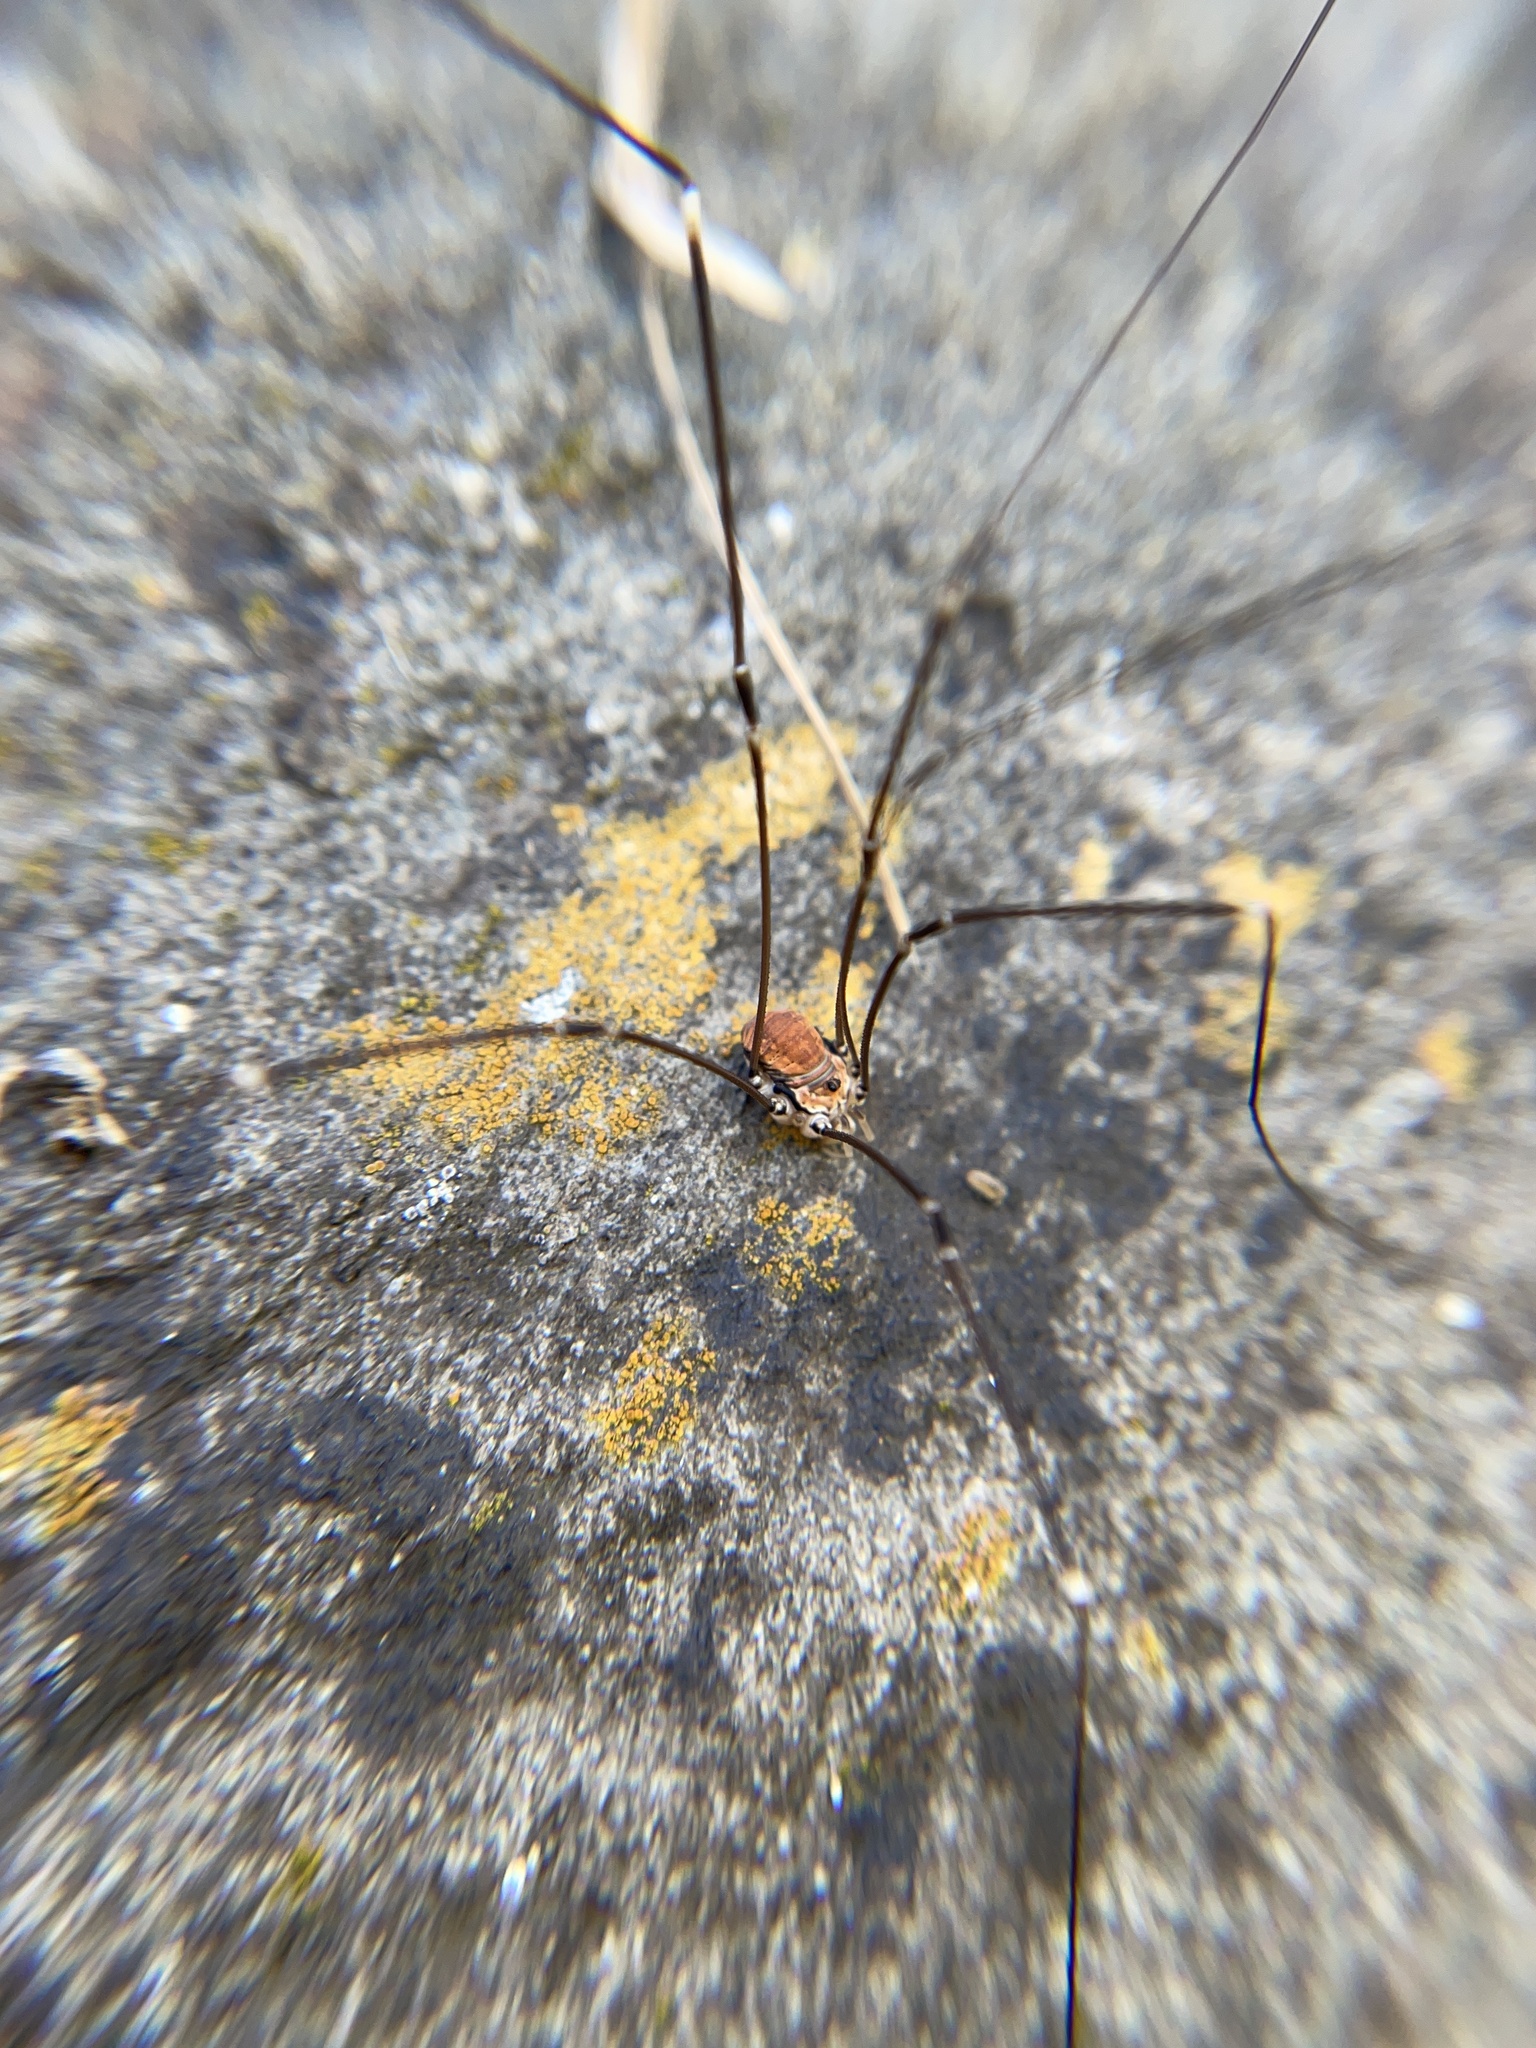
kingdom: Animalia
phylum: Arthropoda
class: Arachnida
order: Opiliones
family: Sclerosomatidae
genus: Leiobunum
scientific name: Leiobunum limbatum
